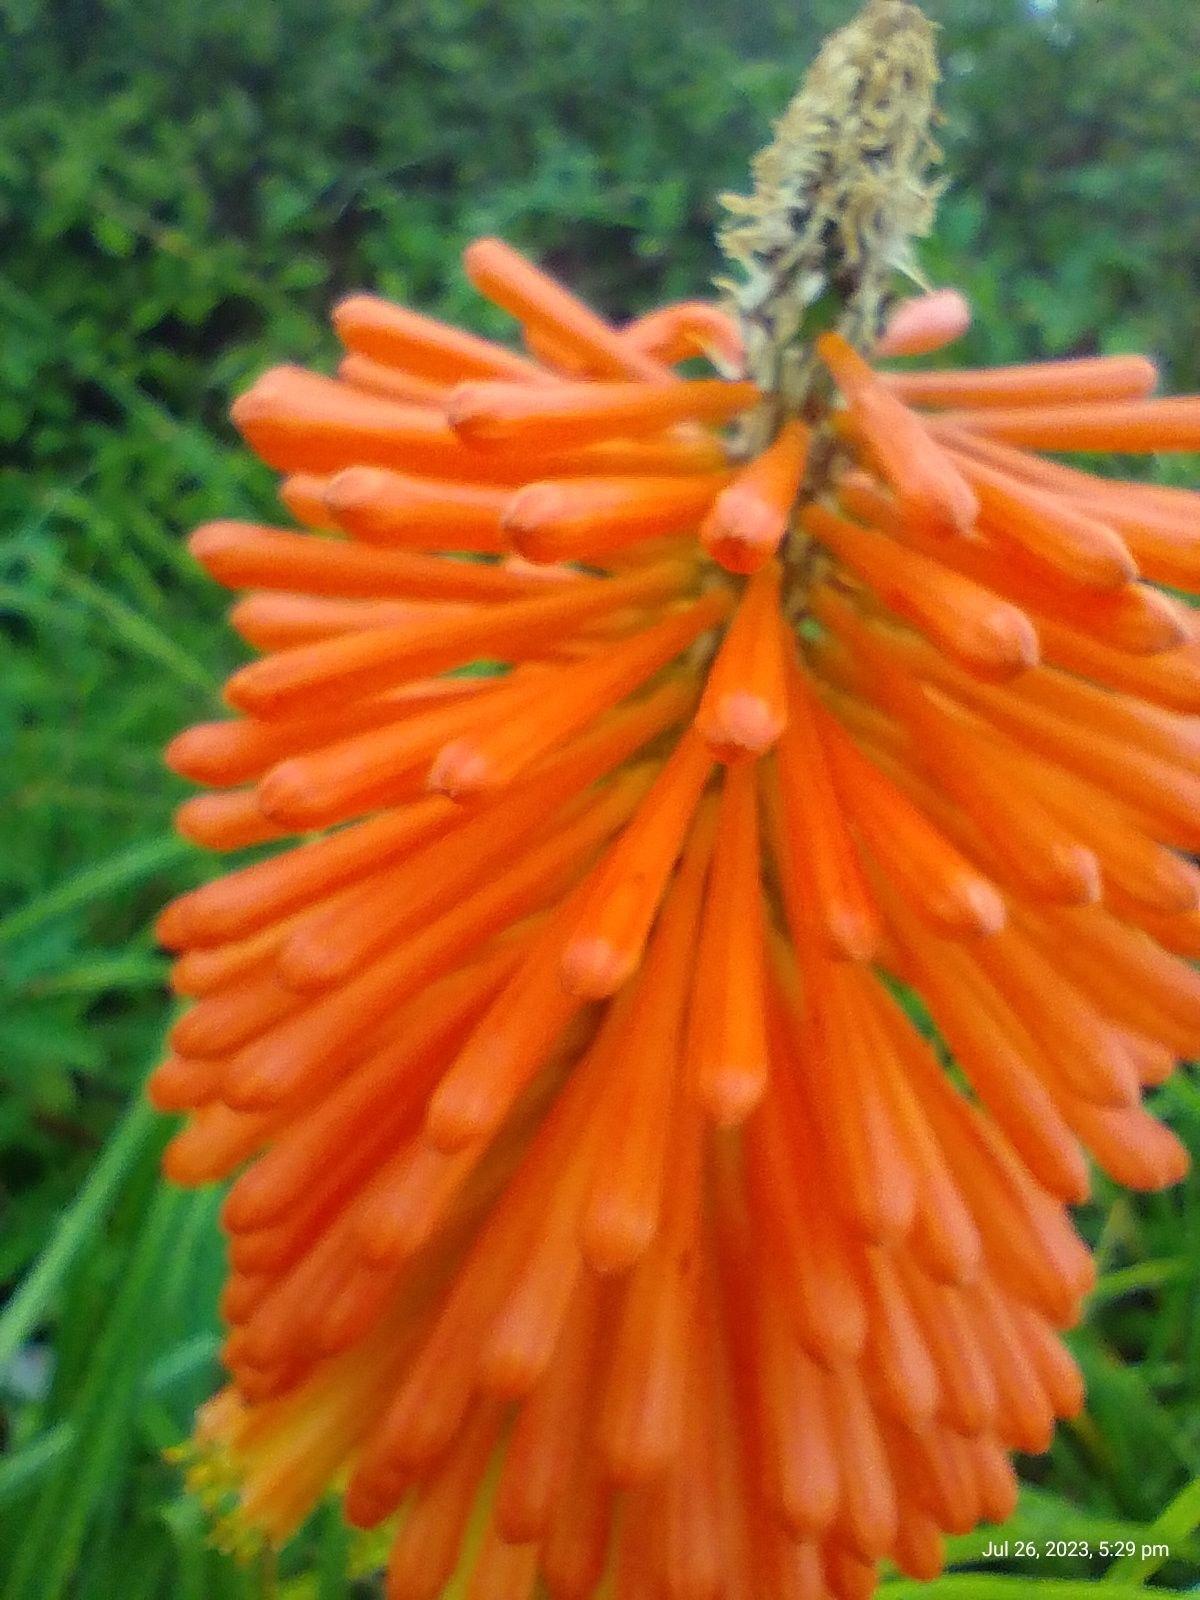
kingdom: Plantae
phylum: Tracheophyta
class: Liliopsida
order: Asparagales
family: Asphodelaceae
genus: Kniphofia
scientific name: Kniphofia uvaria
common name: Red-hot-poker
